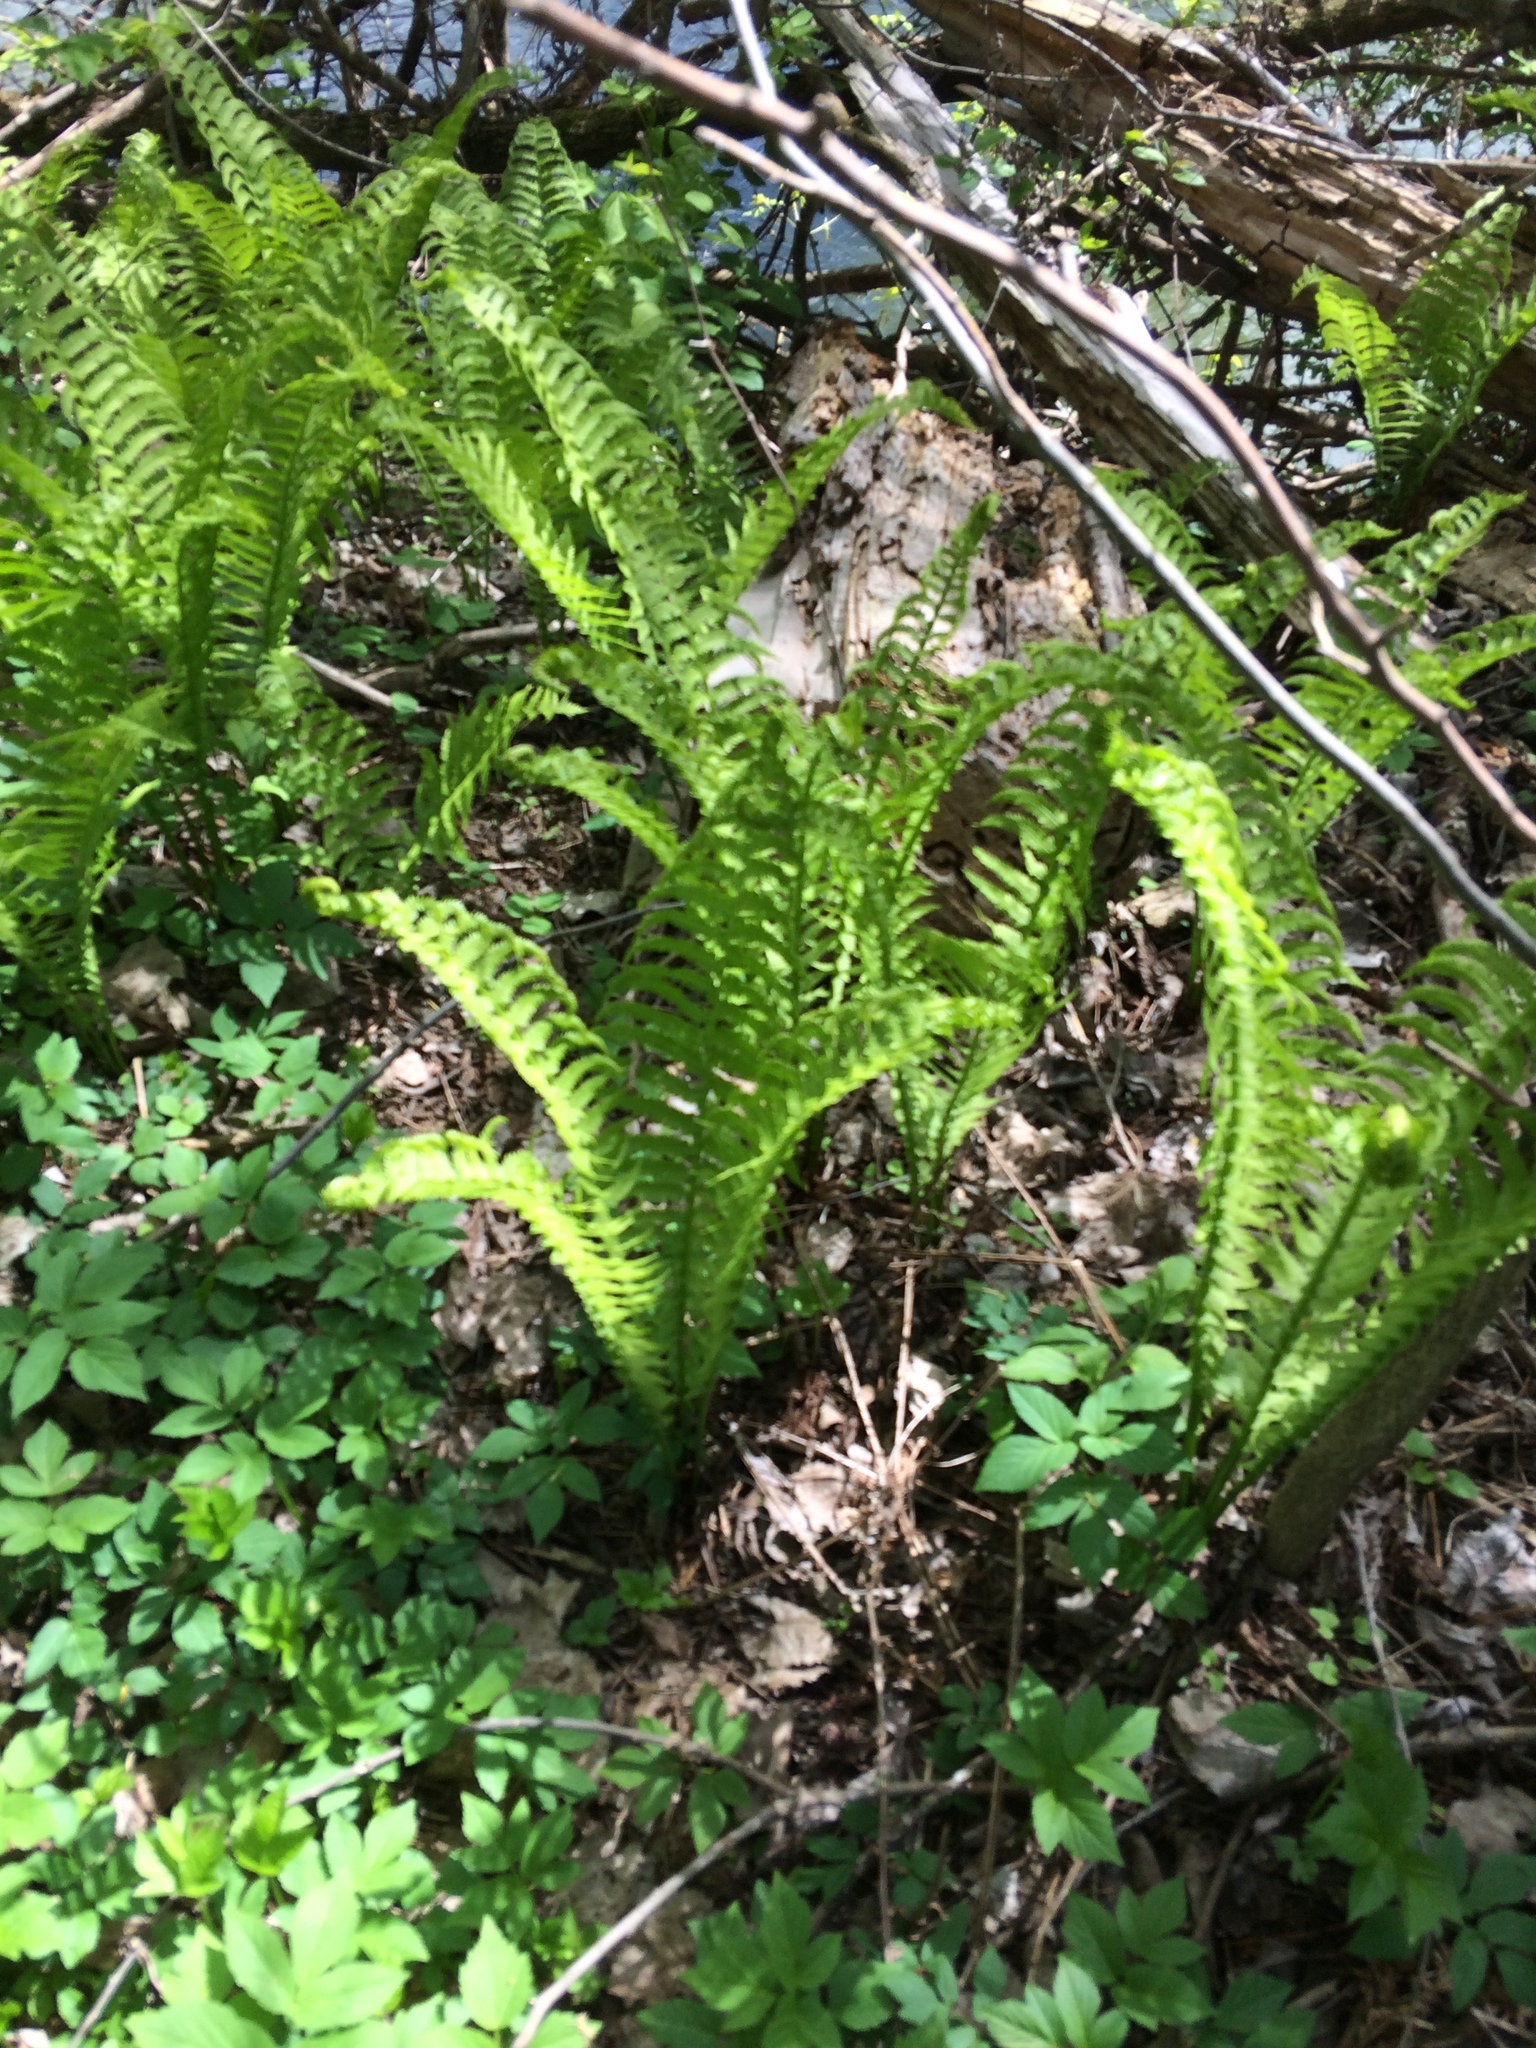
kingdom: Plantae
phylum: Tracheophyta
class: Polypodiopsida
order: Polypodiales
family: Onocleaceae
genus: Matteuccia
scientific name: Matteuccia struthiopteris
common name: Ostrich fern
